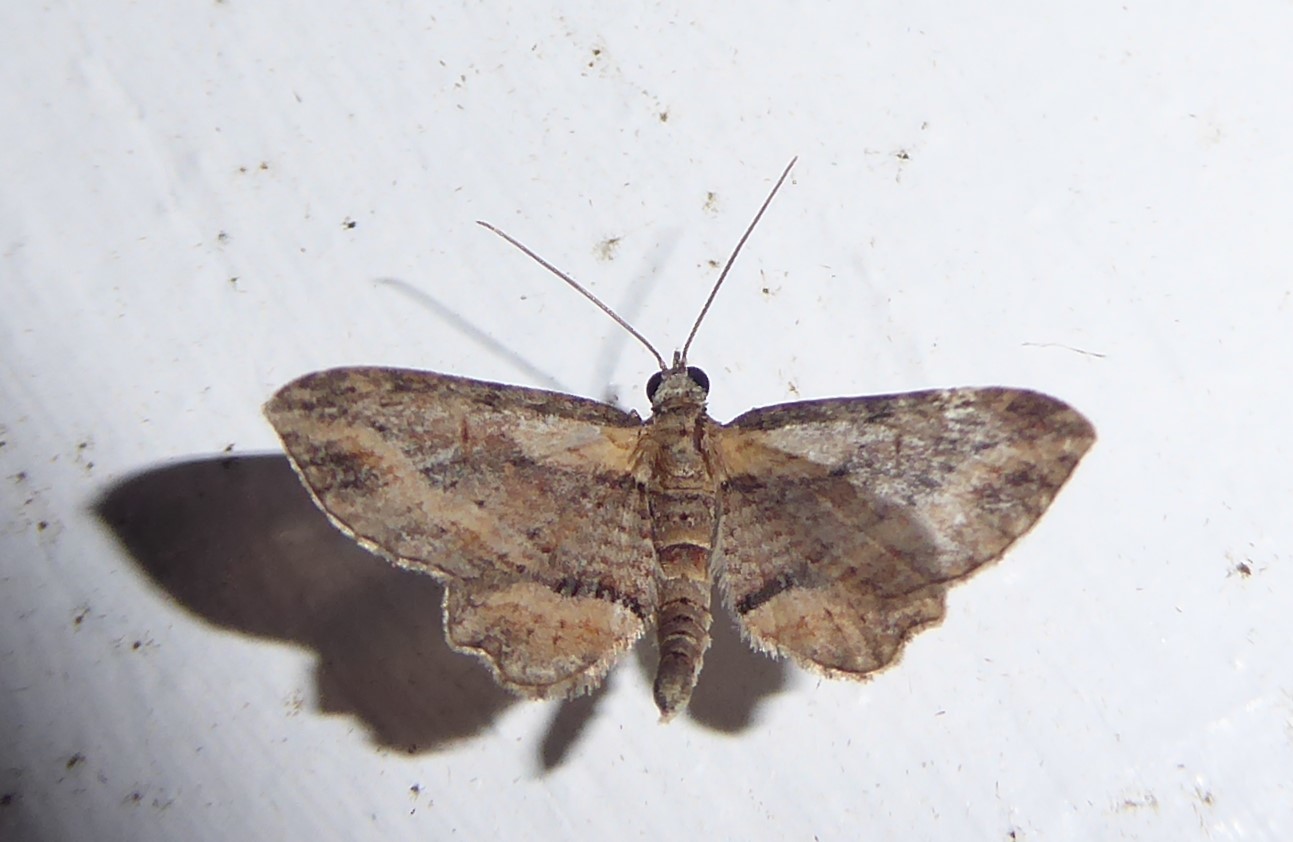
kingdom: Animalia
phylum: Arthropoda
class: Insecta
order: Lepidoptera
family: Geometridae
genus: Chloroclystis
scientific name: Chloroclystis filata
